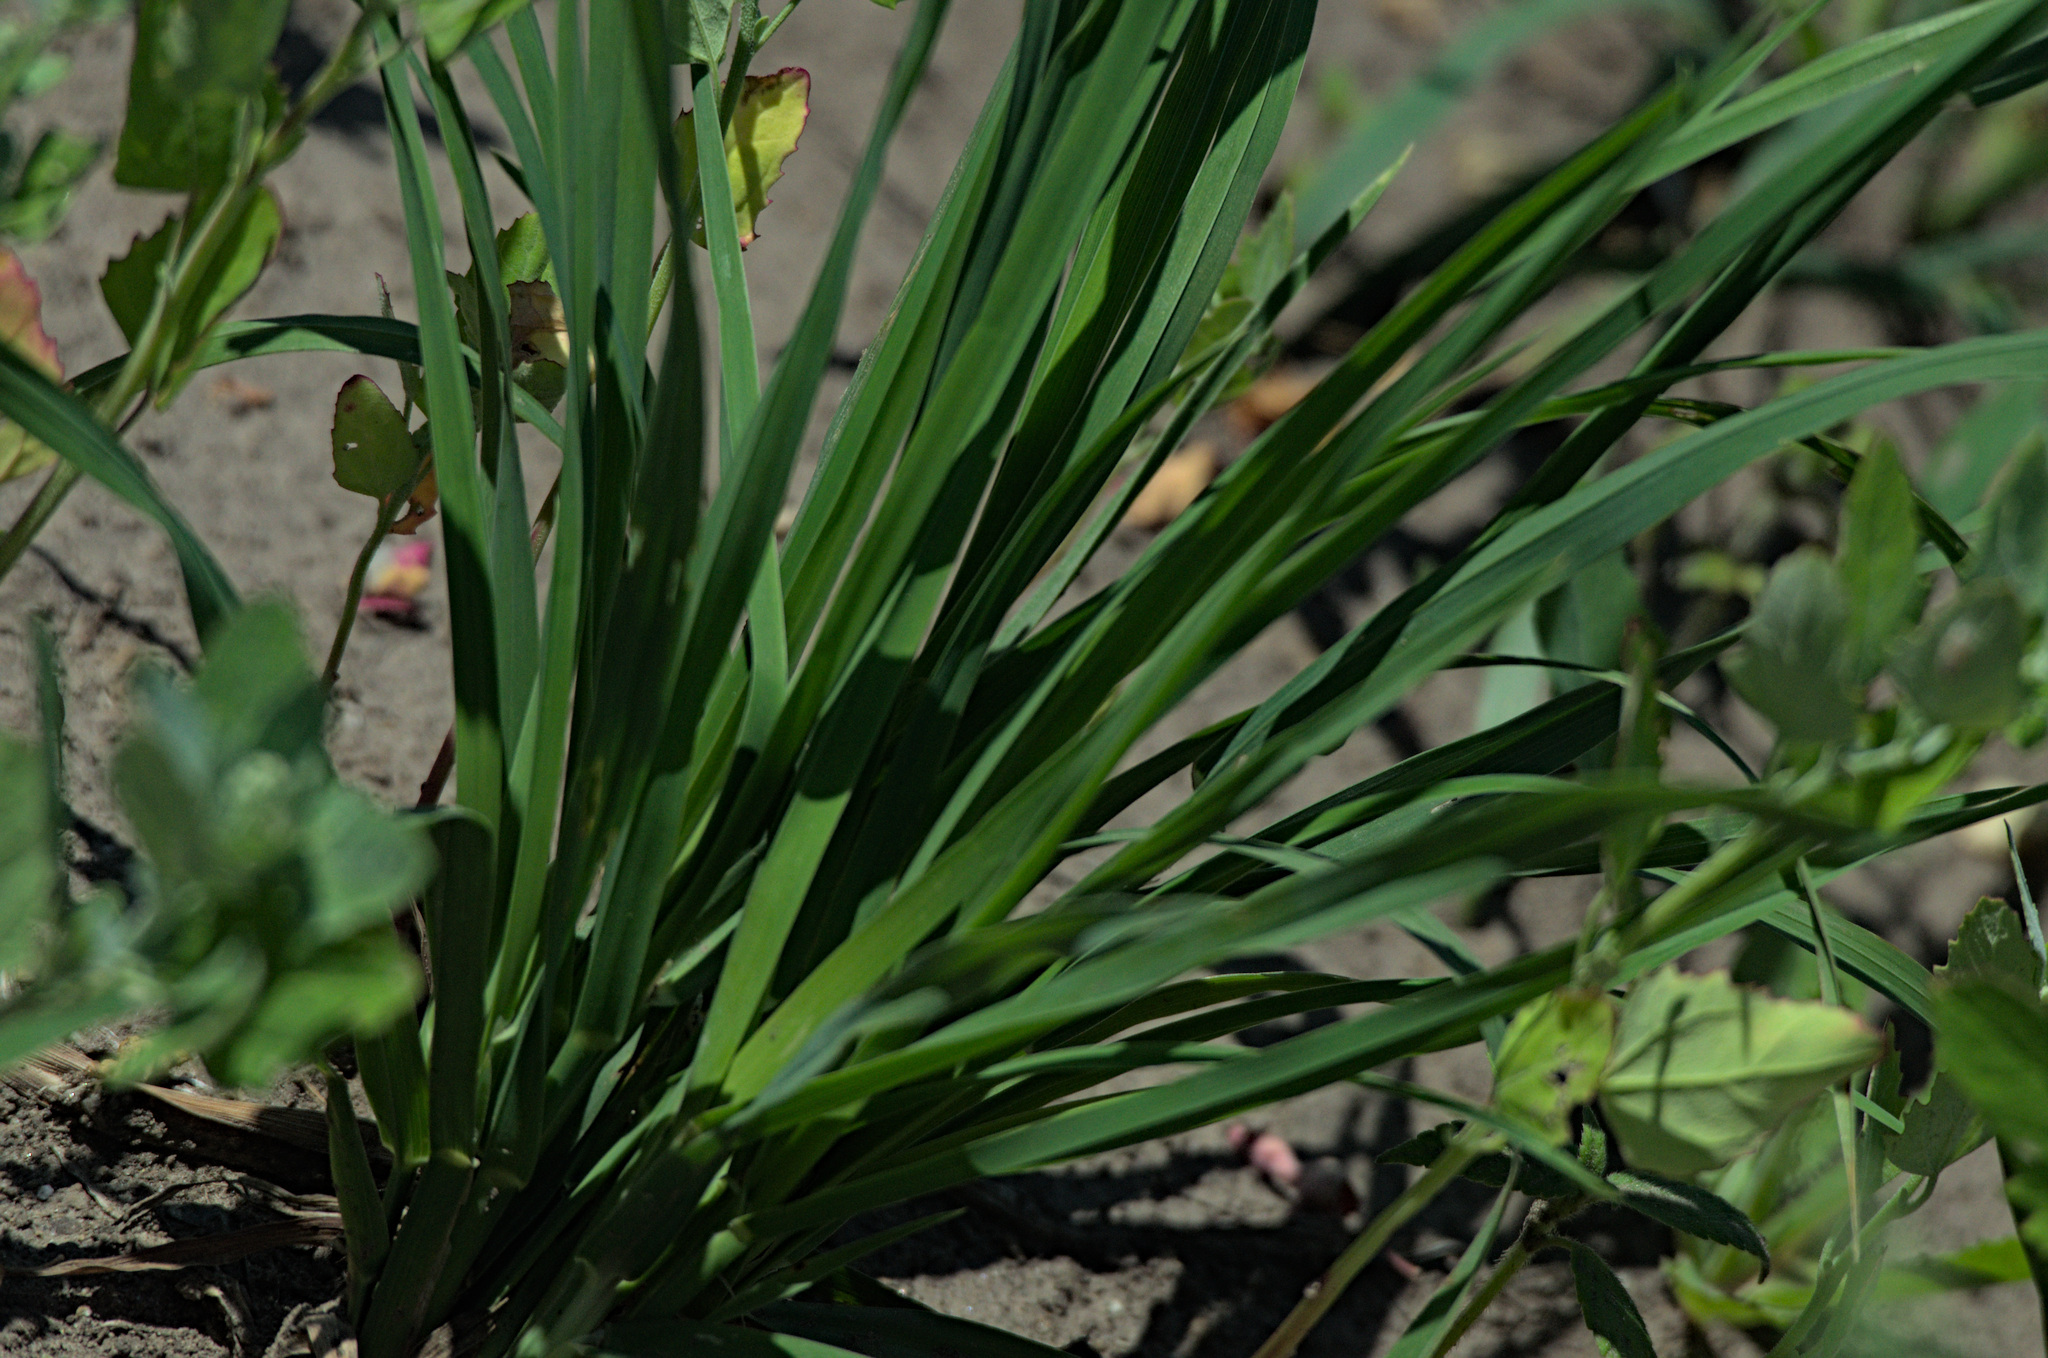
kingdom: Plantae
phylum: Tracheophyta
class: Liliopsida
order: Poales
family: Poaceae
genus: Dactylis
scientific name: Dactylis glomerata
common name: Orchardgrass
